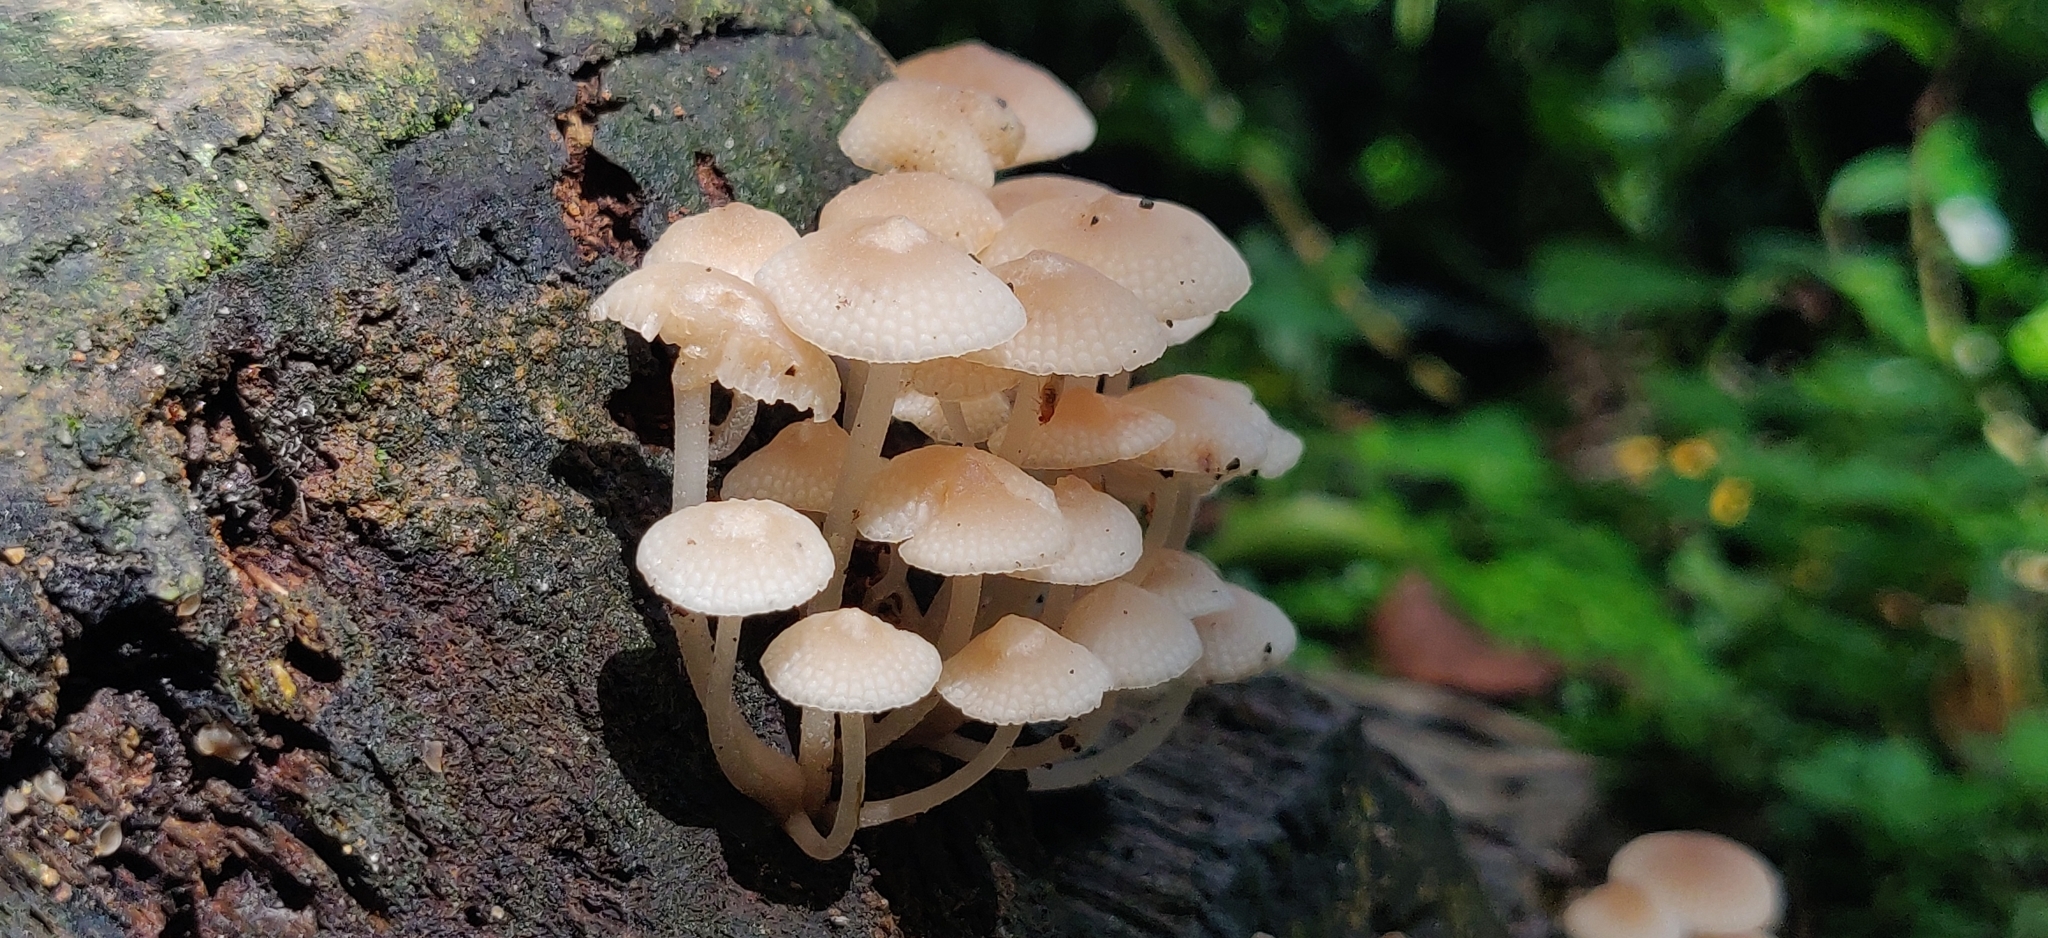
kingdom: Fungi
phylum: Basidiomycota
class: Agaricomycetes
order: Agaricales
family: Mycenaceae
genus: Filoboletus
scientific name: Filoboletus manipularis
